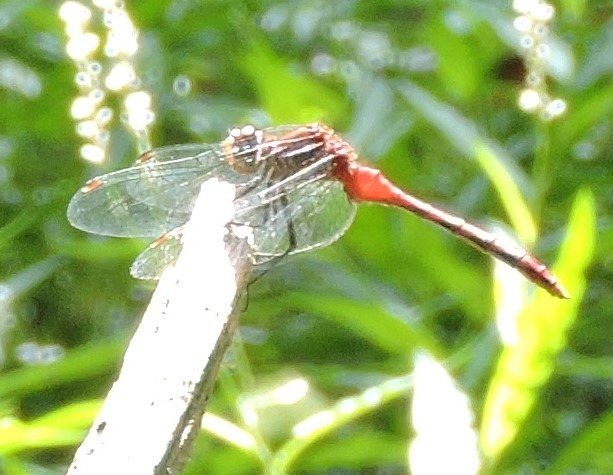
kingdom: Animalia
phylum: Arthropoda
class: Insecta
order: Odonata
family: Libellulidae
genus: Sympetrum
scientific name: Sympetrum
